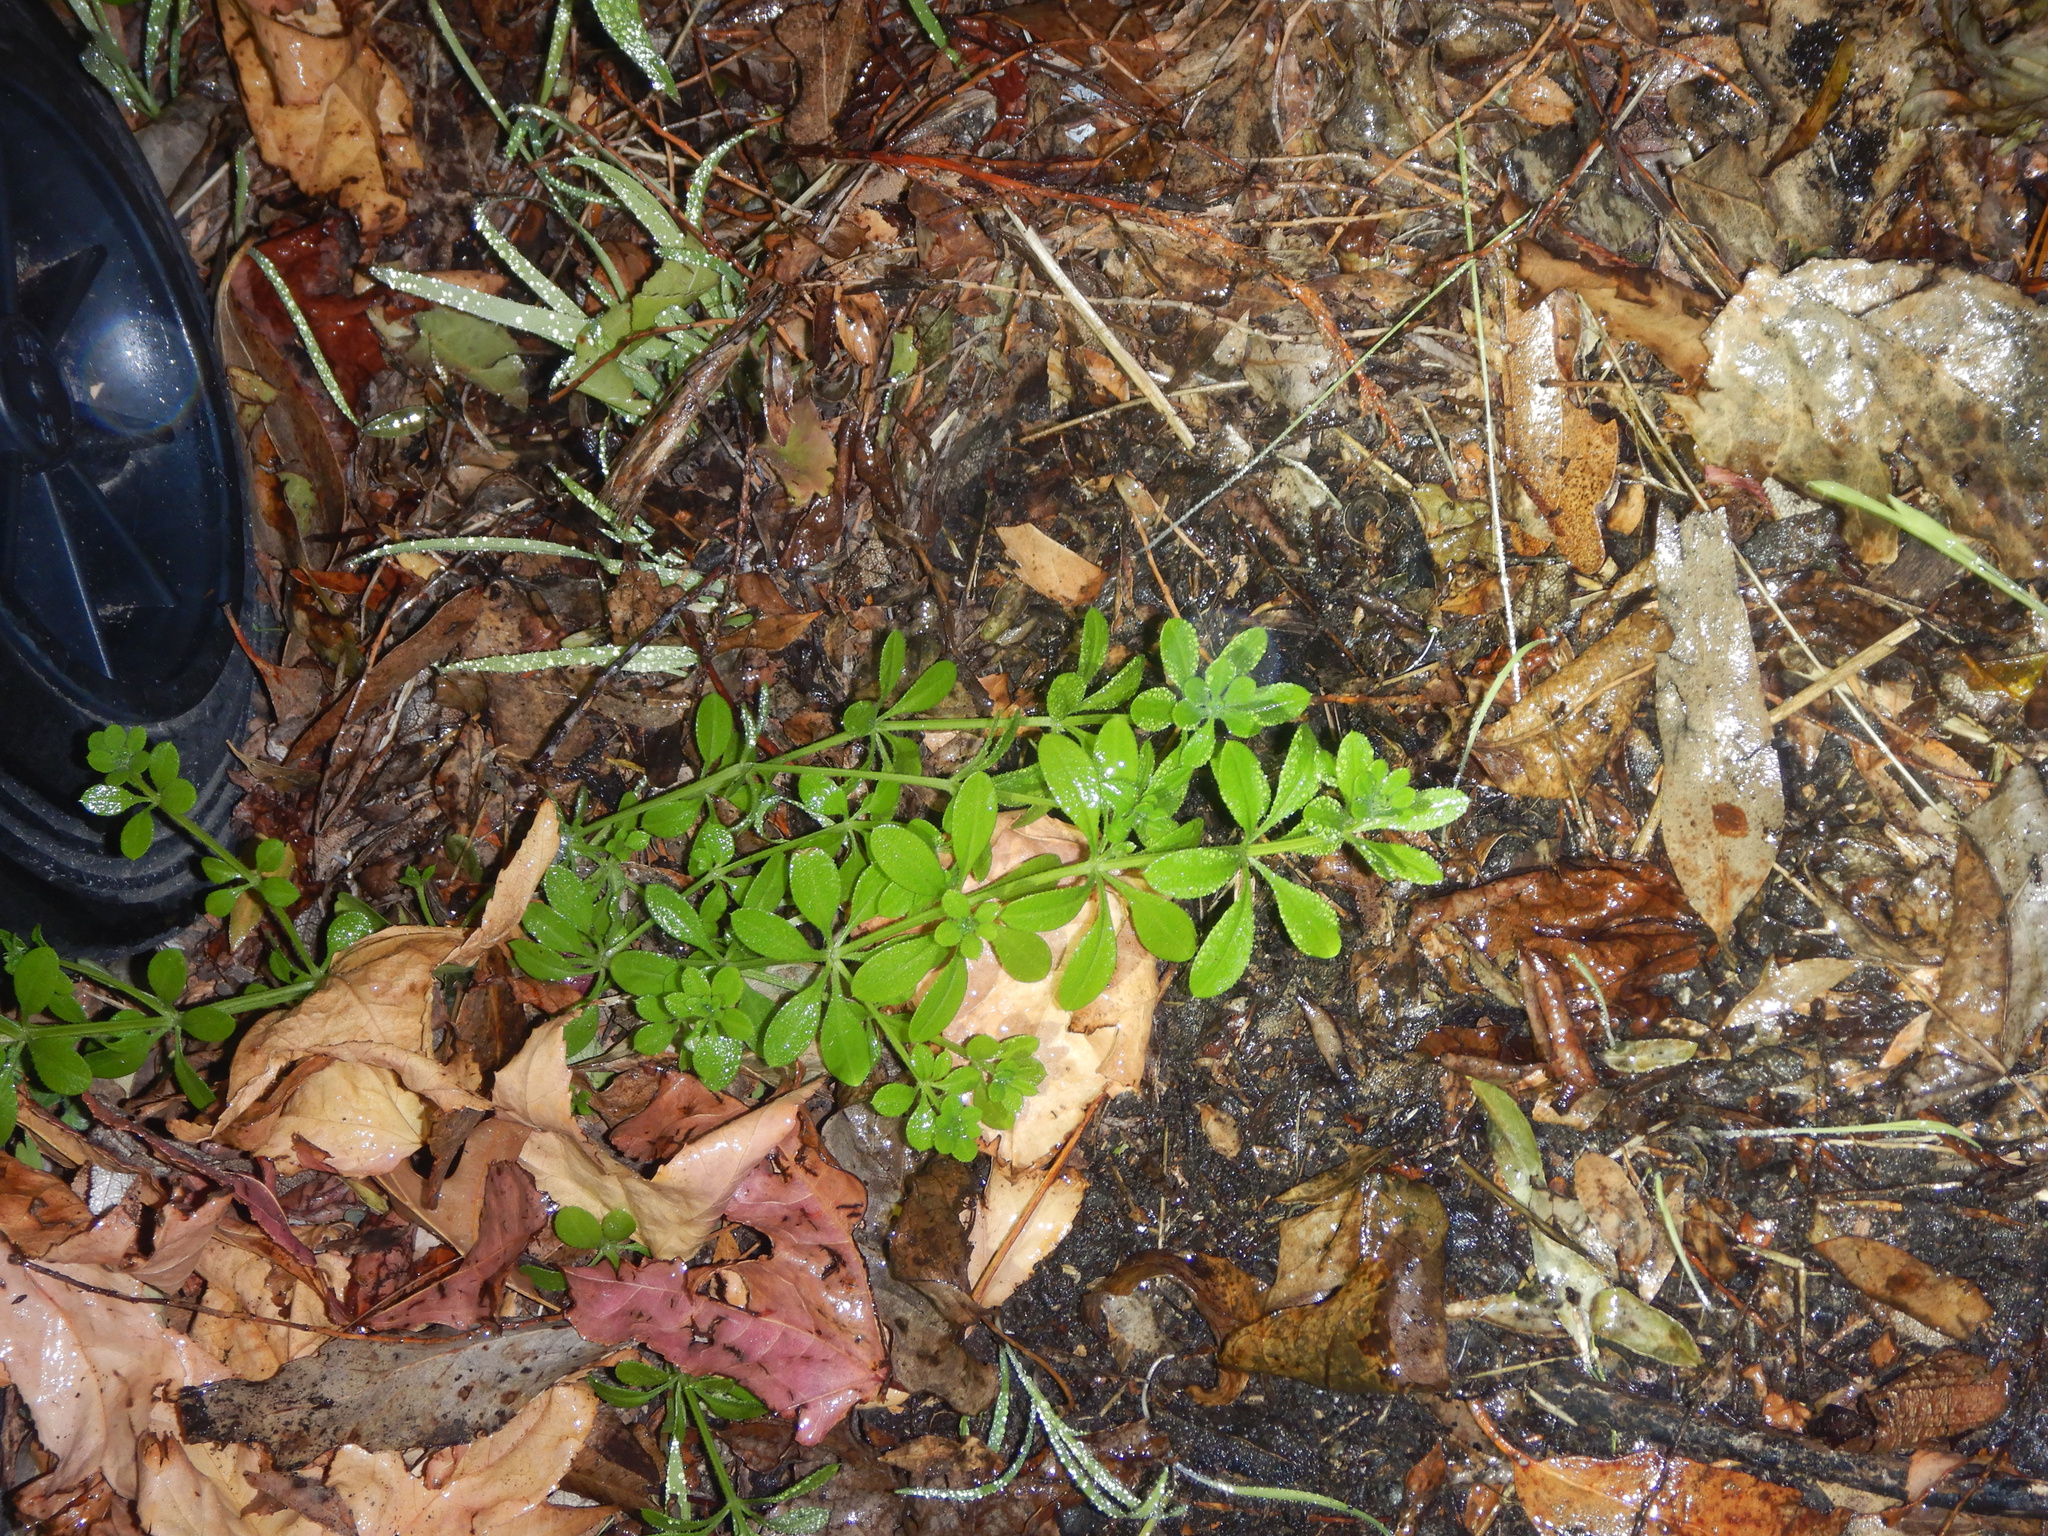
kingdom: Plantae
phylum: Tracheophyta
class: Magnoliopsida
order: Gentianales
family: Rubiaceae
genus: Galium
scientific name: Galium aparine
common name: Cleavers
